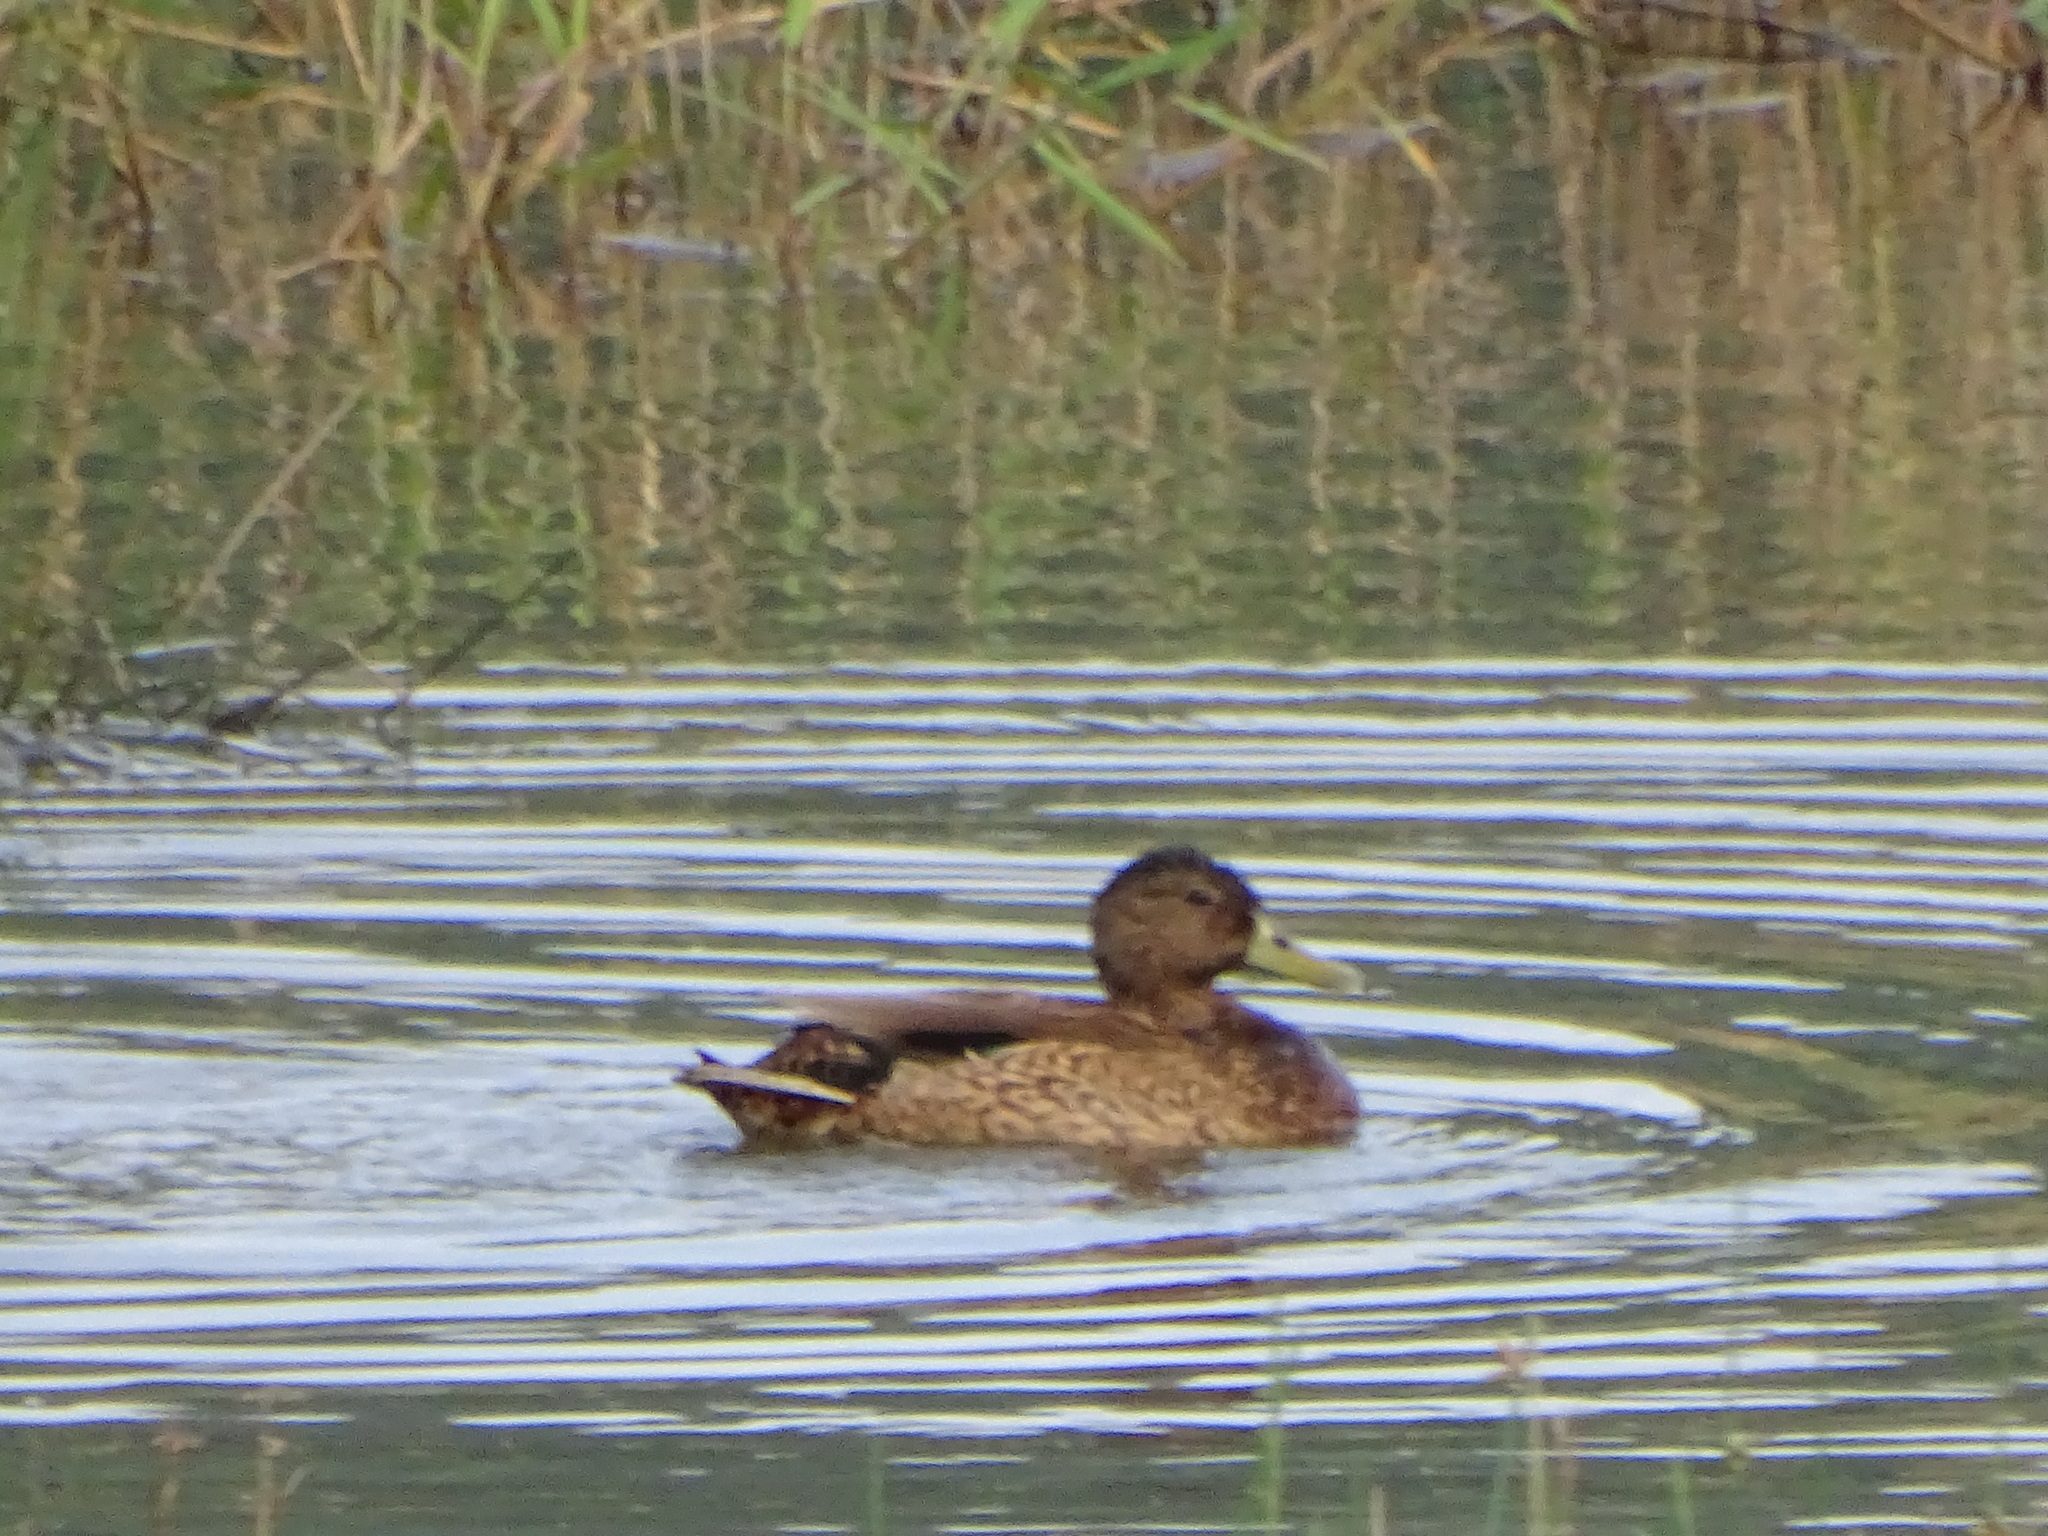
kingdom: Animalia
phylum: Chordata
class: Aves
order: Anseriformes
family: Anatidae
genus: Anas
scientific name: Anas wyvilliana
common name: Hawaiian duck
